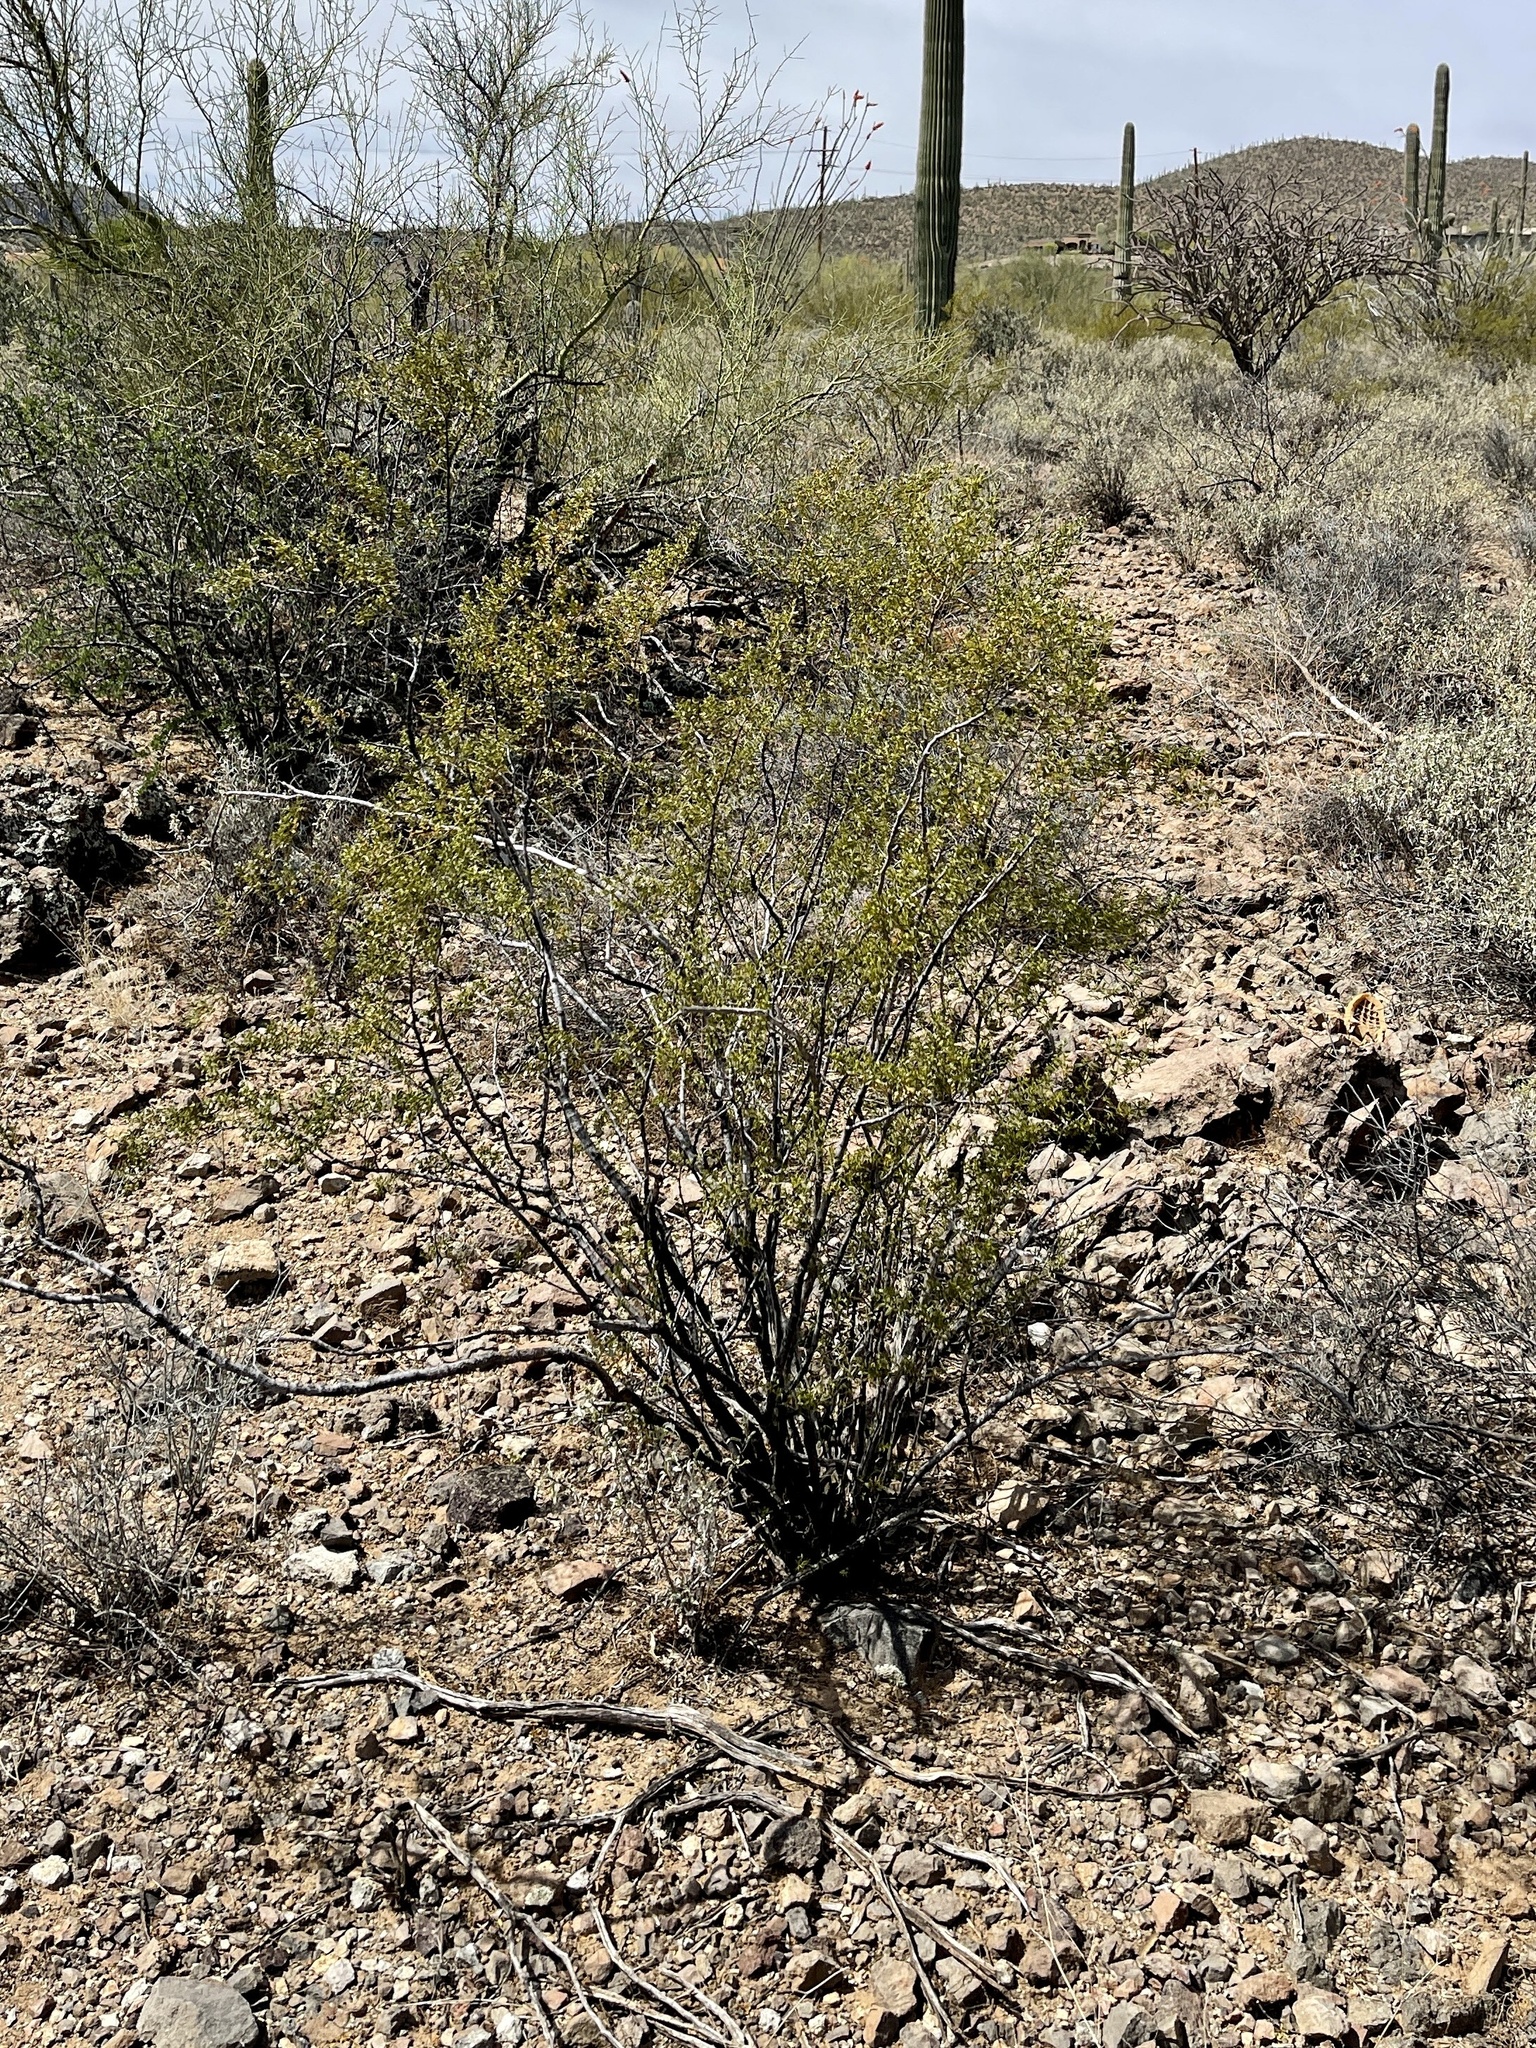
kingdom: Plantae
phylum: Tracheophyta
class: Magnoliopsida
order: Zygophyllales
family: Zygophyllaceae
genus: Larrea
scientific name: Larrea tridentata
